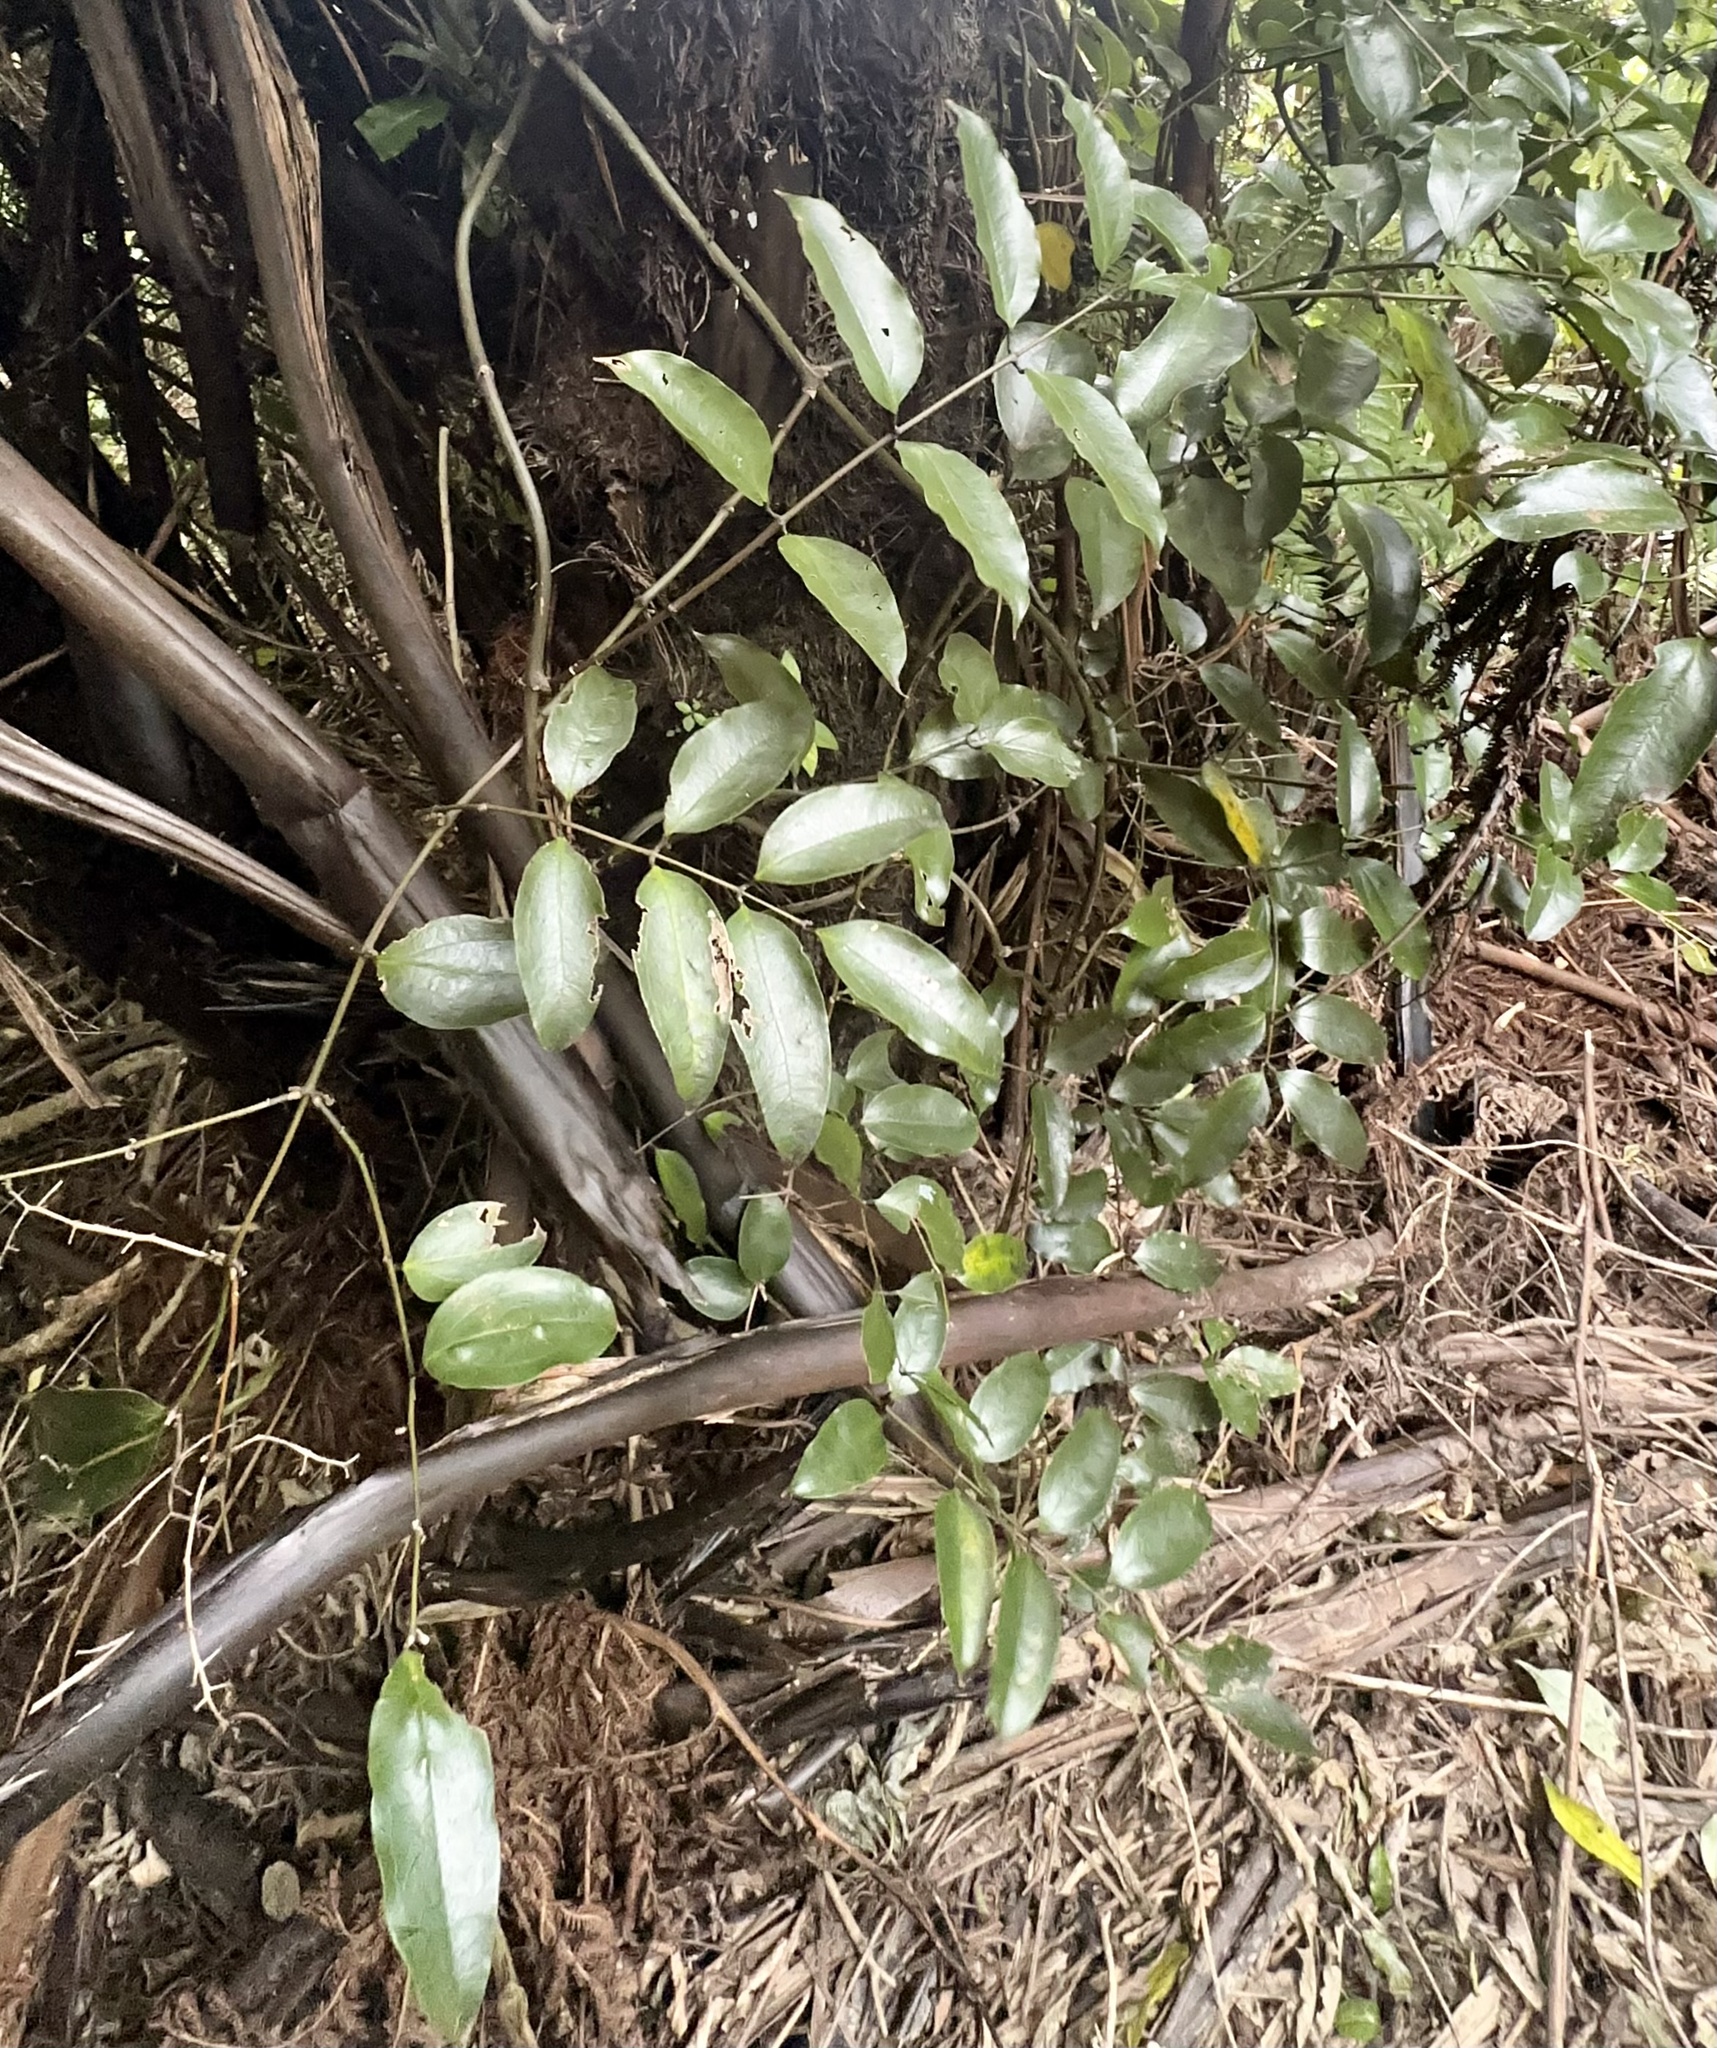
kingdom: Plantae
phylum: Tracheophyta
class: Liliopsida
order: Liliales
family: Ripogonaceae
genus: Ripogonum
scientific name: Ripogonum scandens
